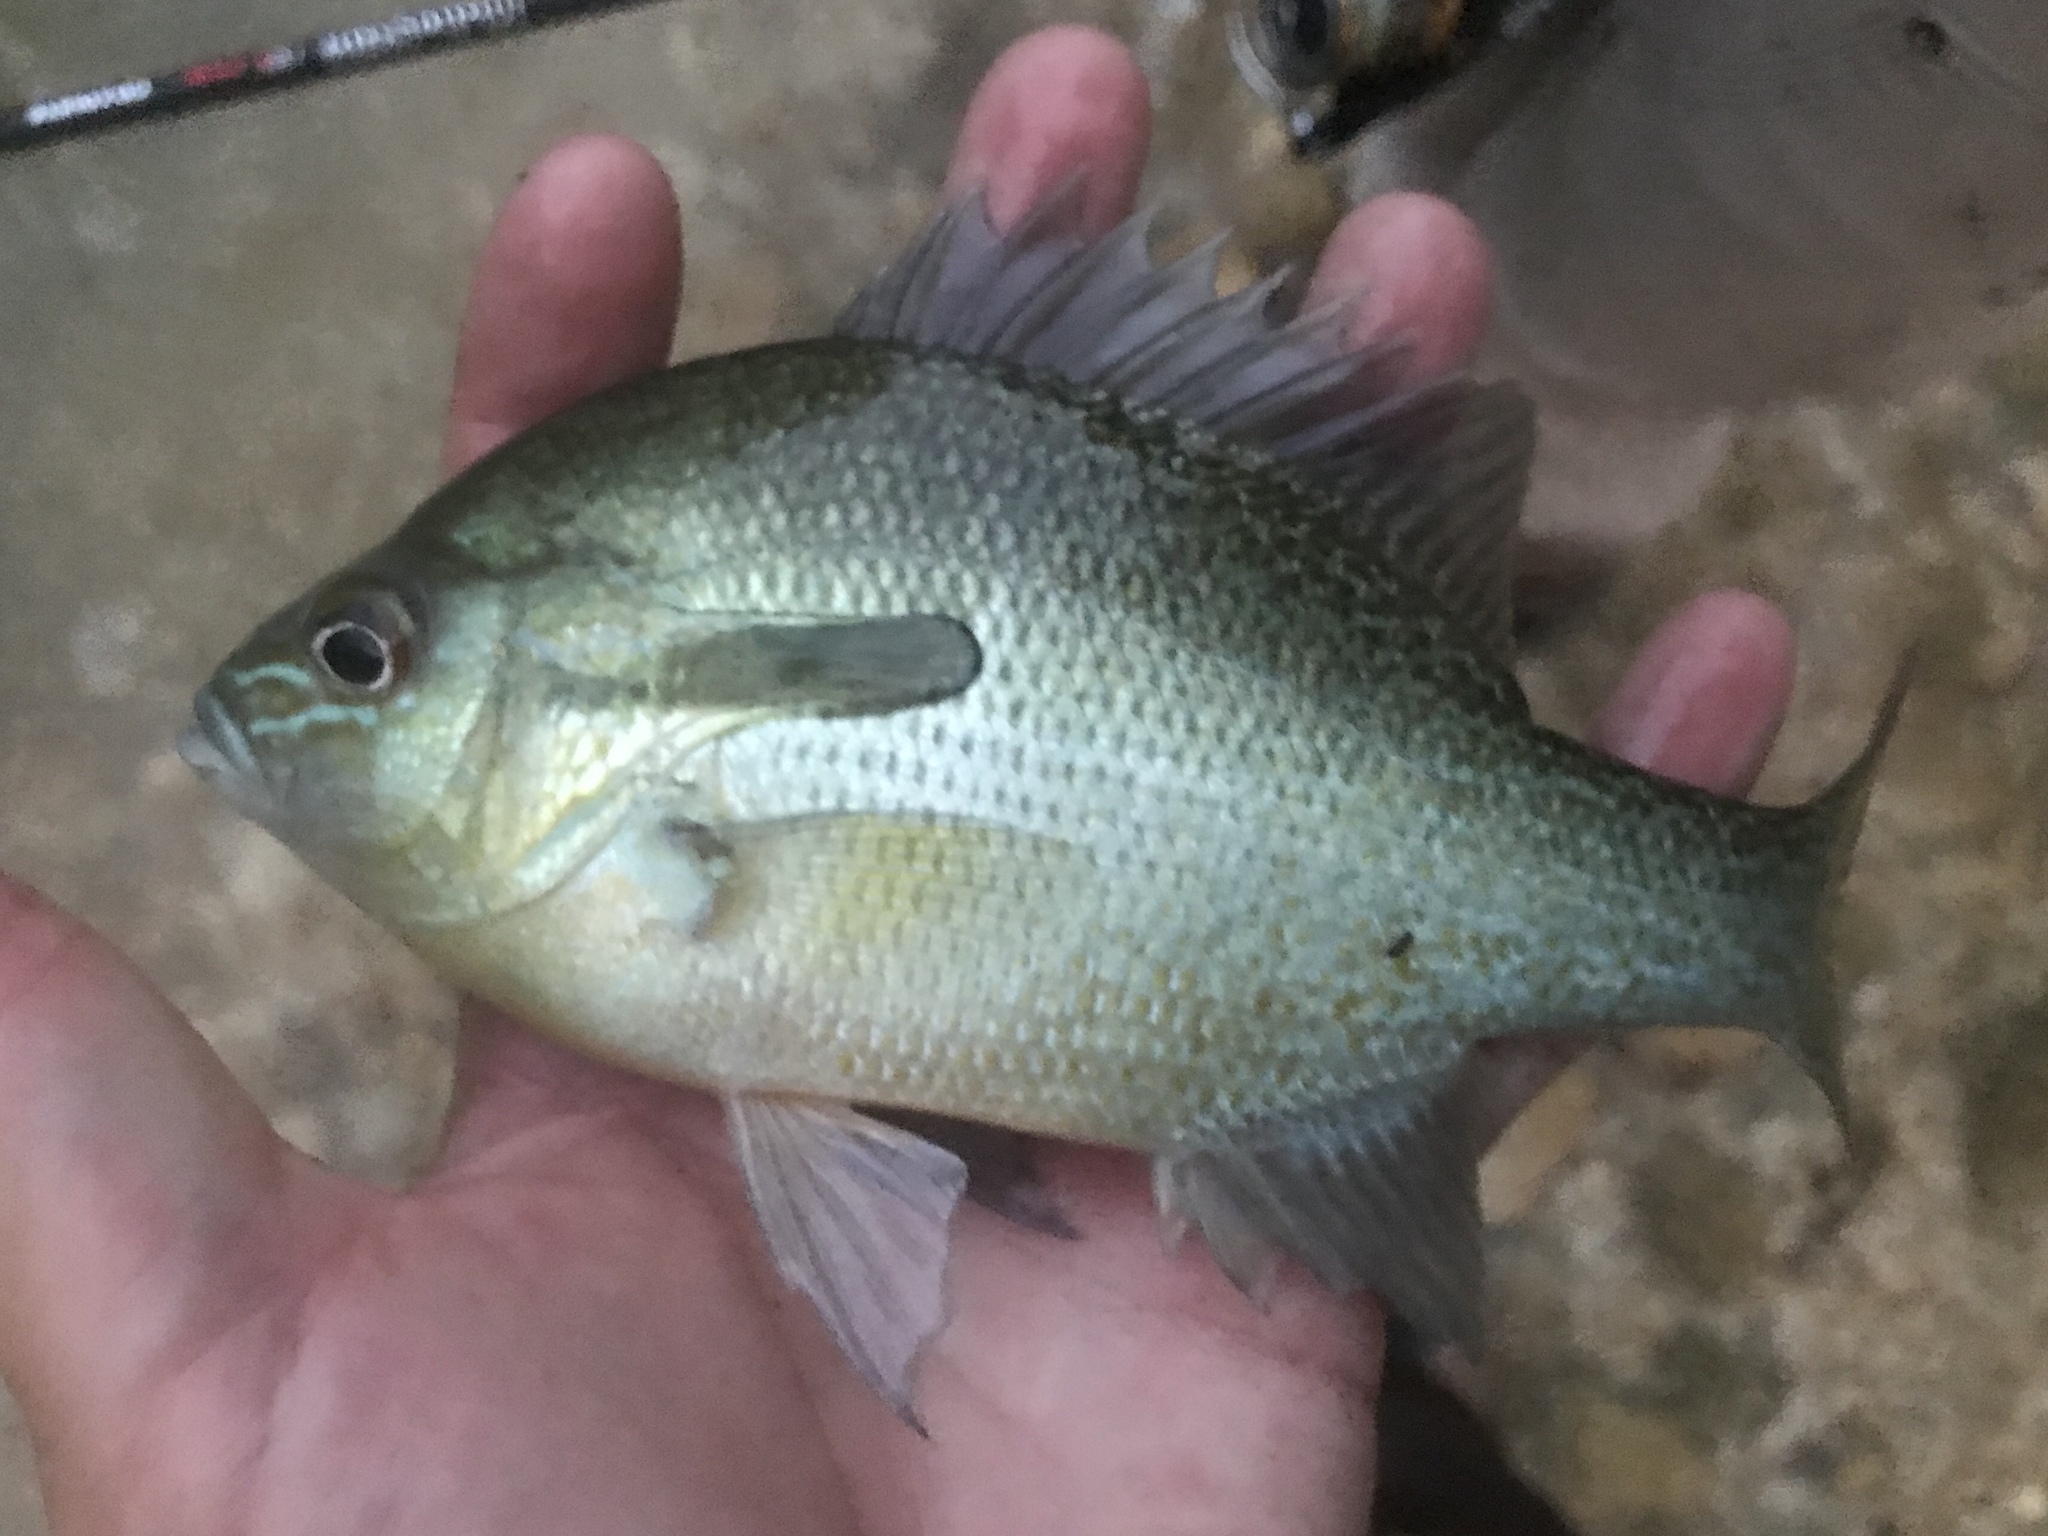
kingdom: Animalia
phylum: Chordata
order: Perciformes
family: Centrarchidae
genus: Lepomis
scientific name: Lepomis auritus
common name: Redbreast sunfish
